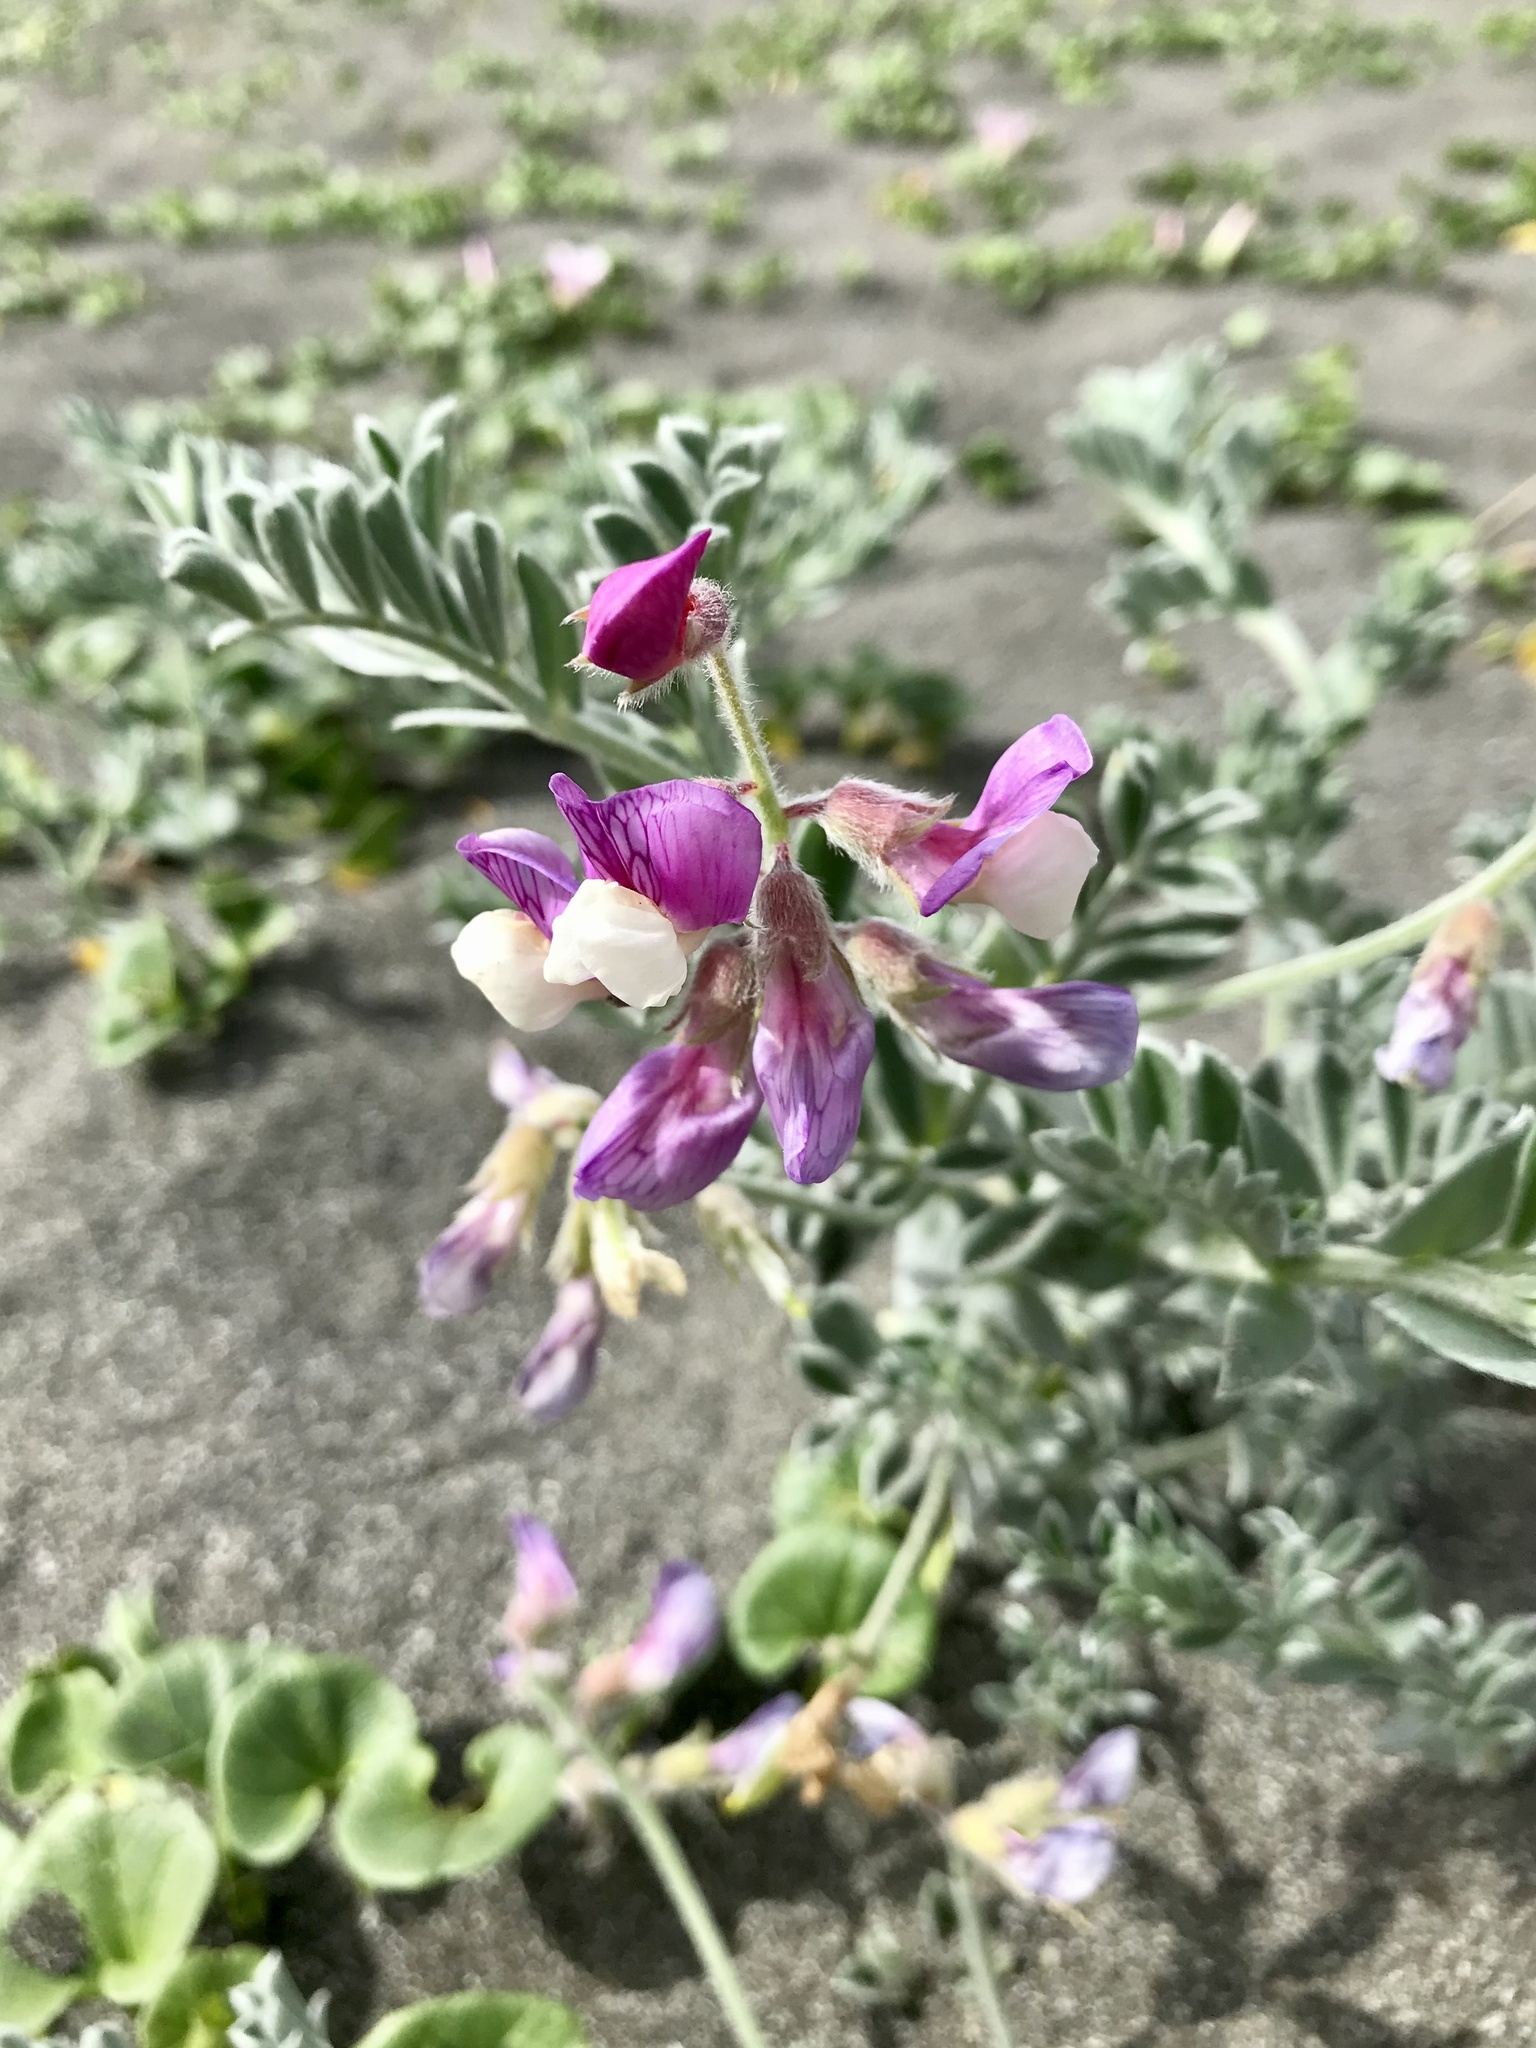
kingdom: Plantae
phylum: Tracheophyta
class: Magnoliopsida
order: Fabales
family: Fabaceae
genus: Lathyrus
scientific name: Lathyrus littoralis
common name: Dune sweet pea
